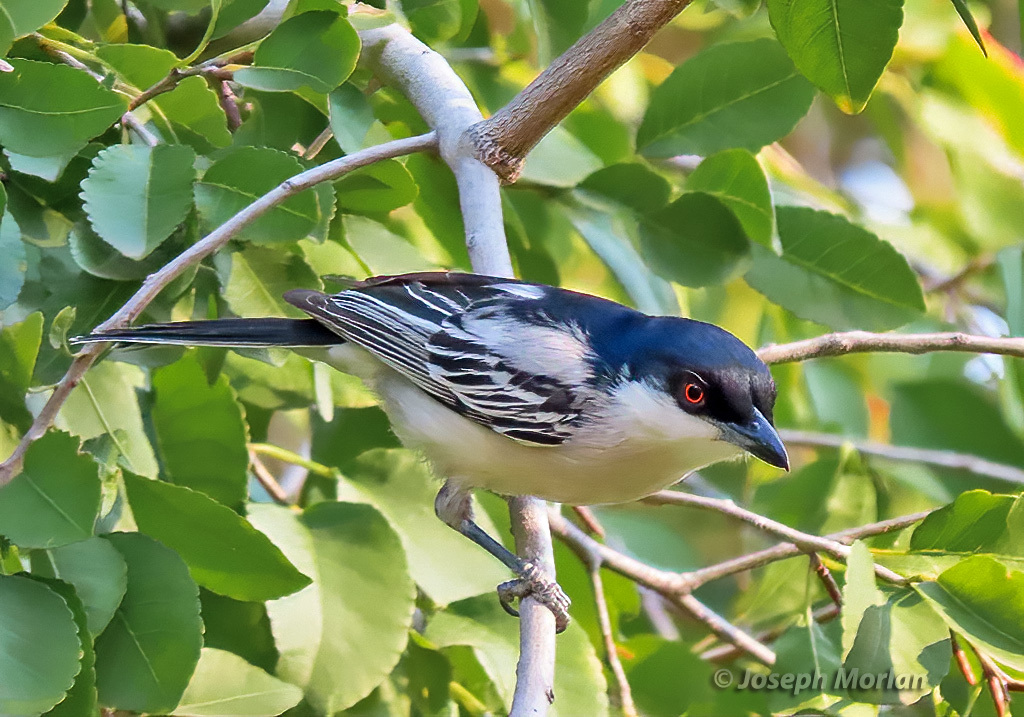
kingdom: Animalia
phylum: Chordata
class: Aves
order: Passeriformes
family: Malaconotidae
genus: Dryoscopus
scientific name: Dryoscopus cubla
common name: Black-backed puffback
